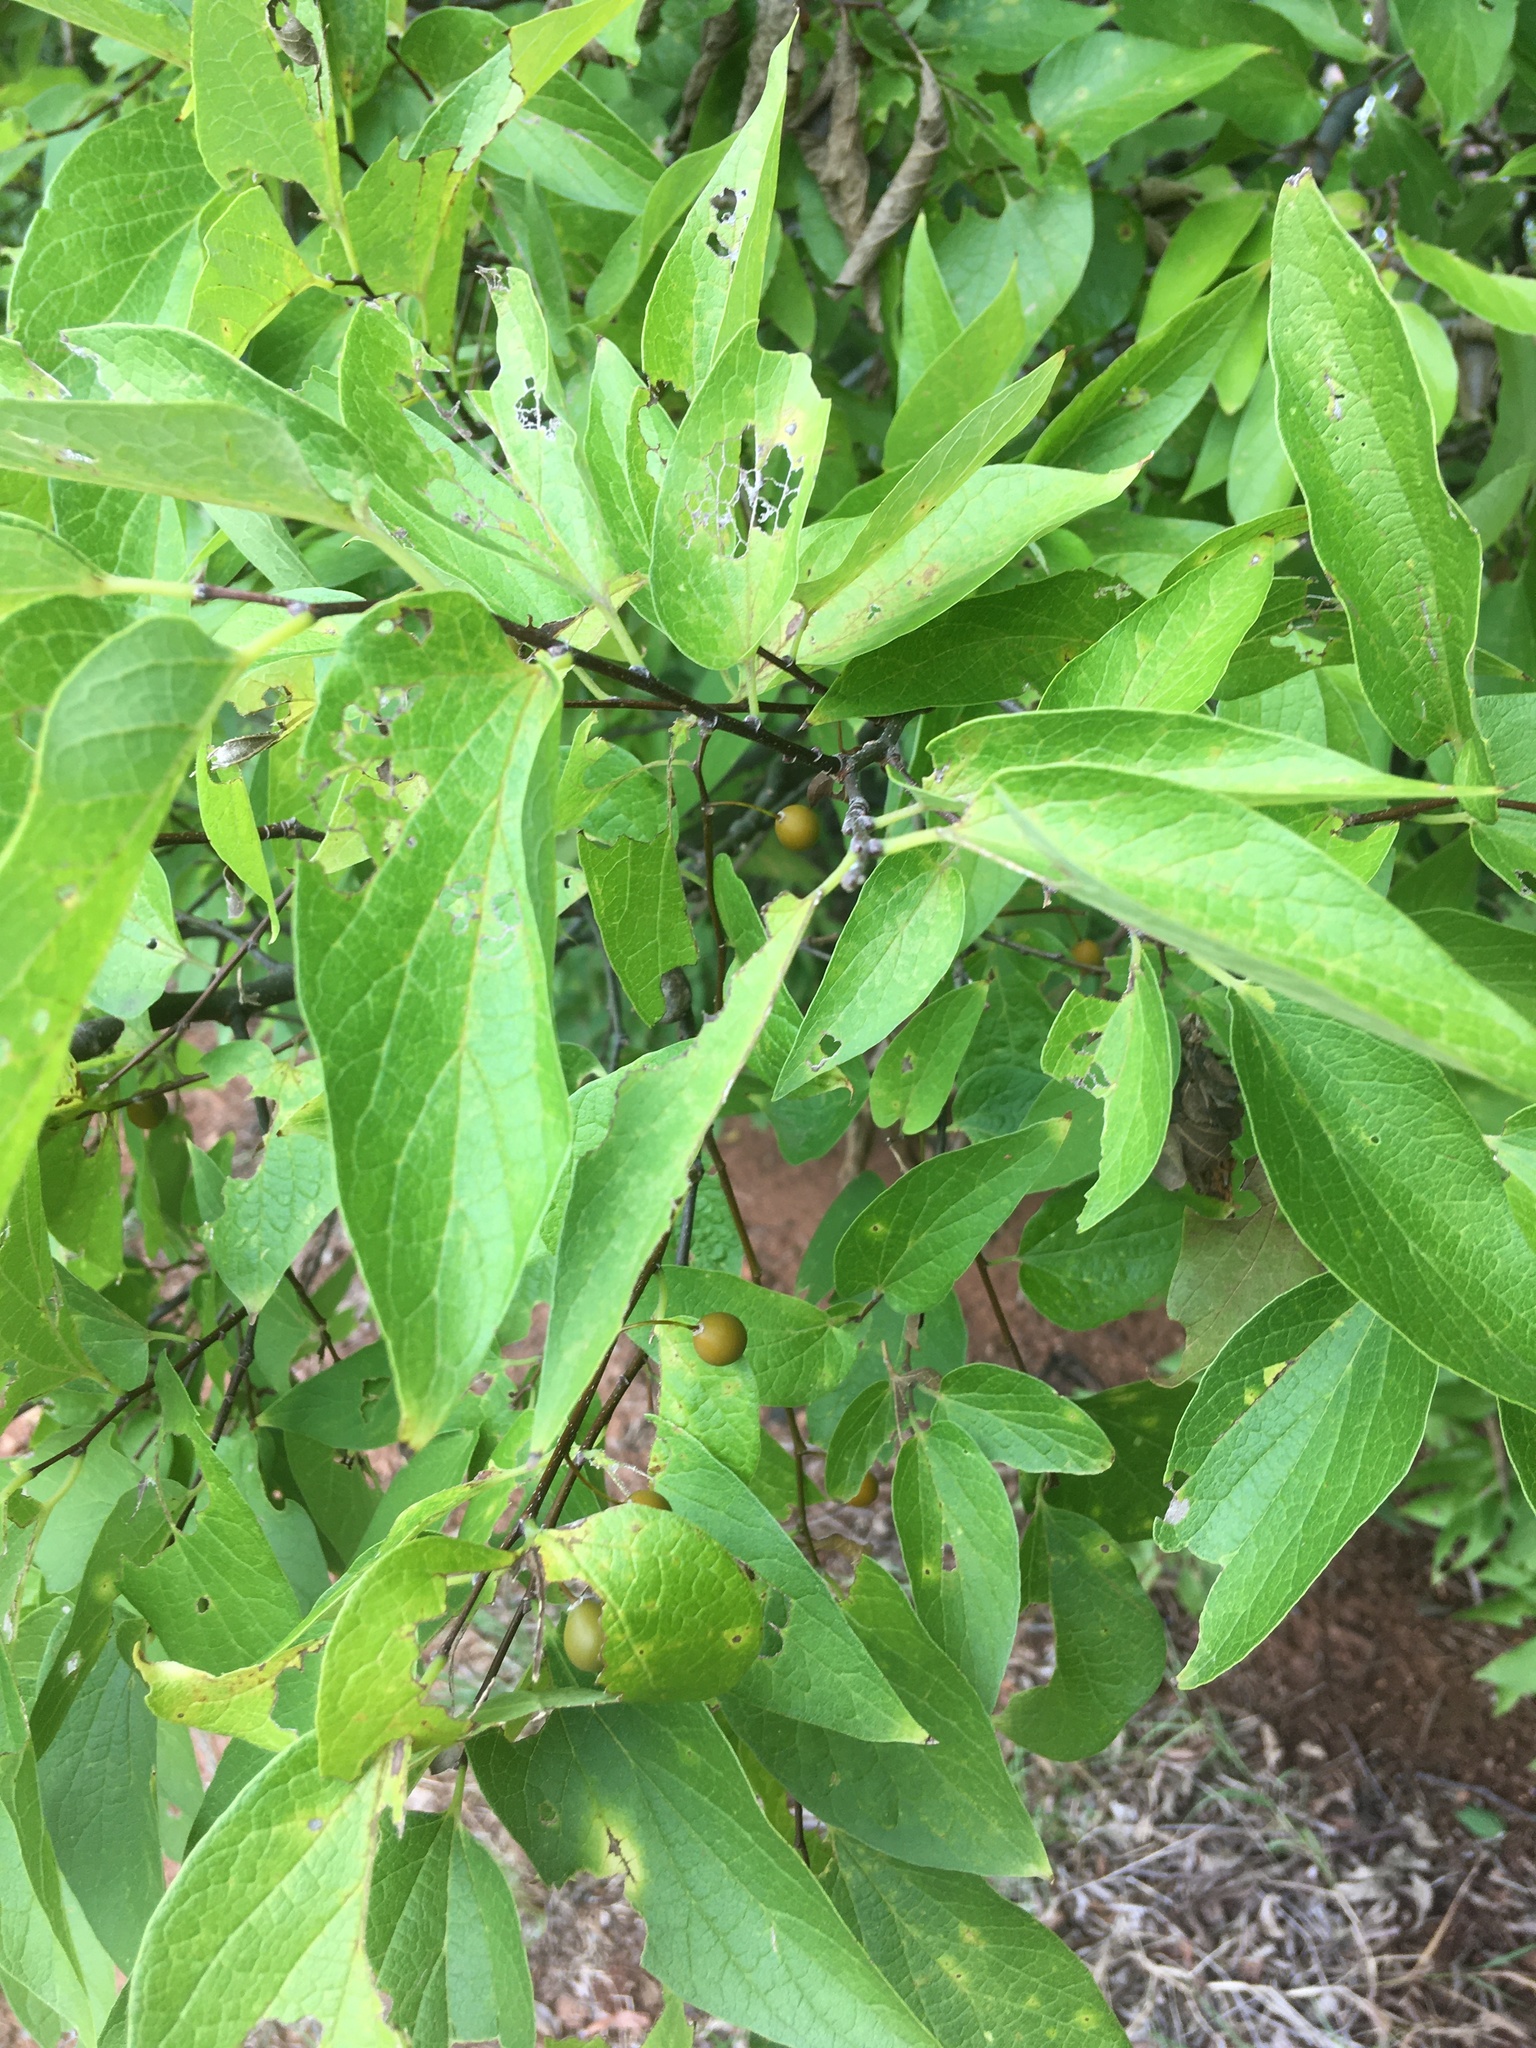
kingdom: Plantae
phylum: Tracheophyta
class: Magnoliopsida
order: Rosales
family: Cannabaceae
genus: Celtis
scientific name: Celtis laevigata
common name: Sugarberry
